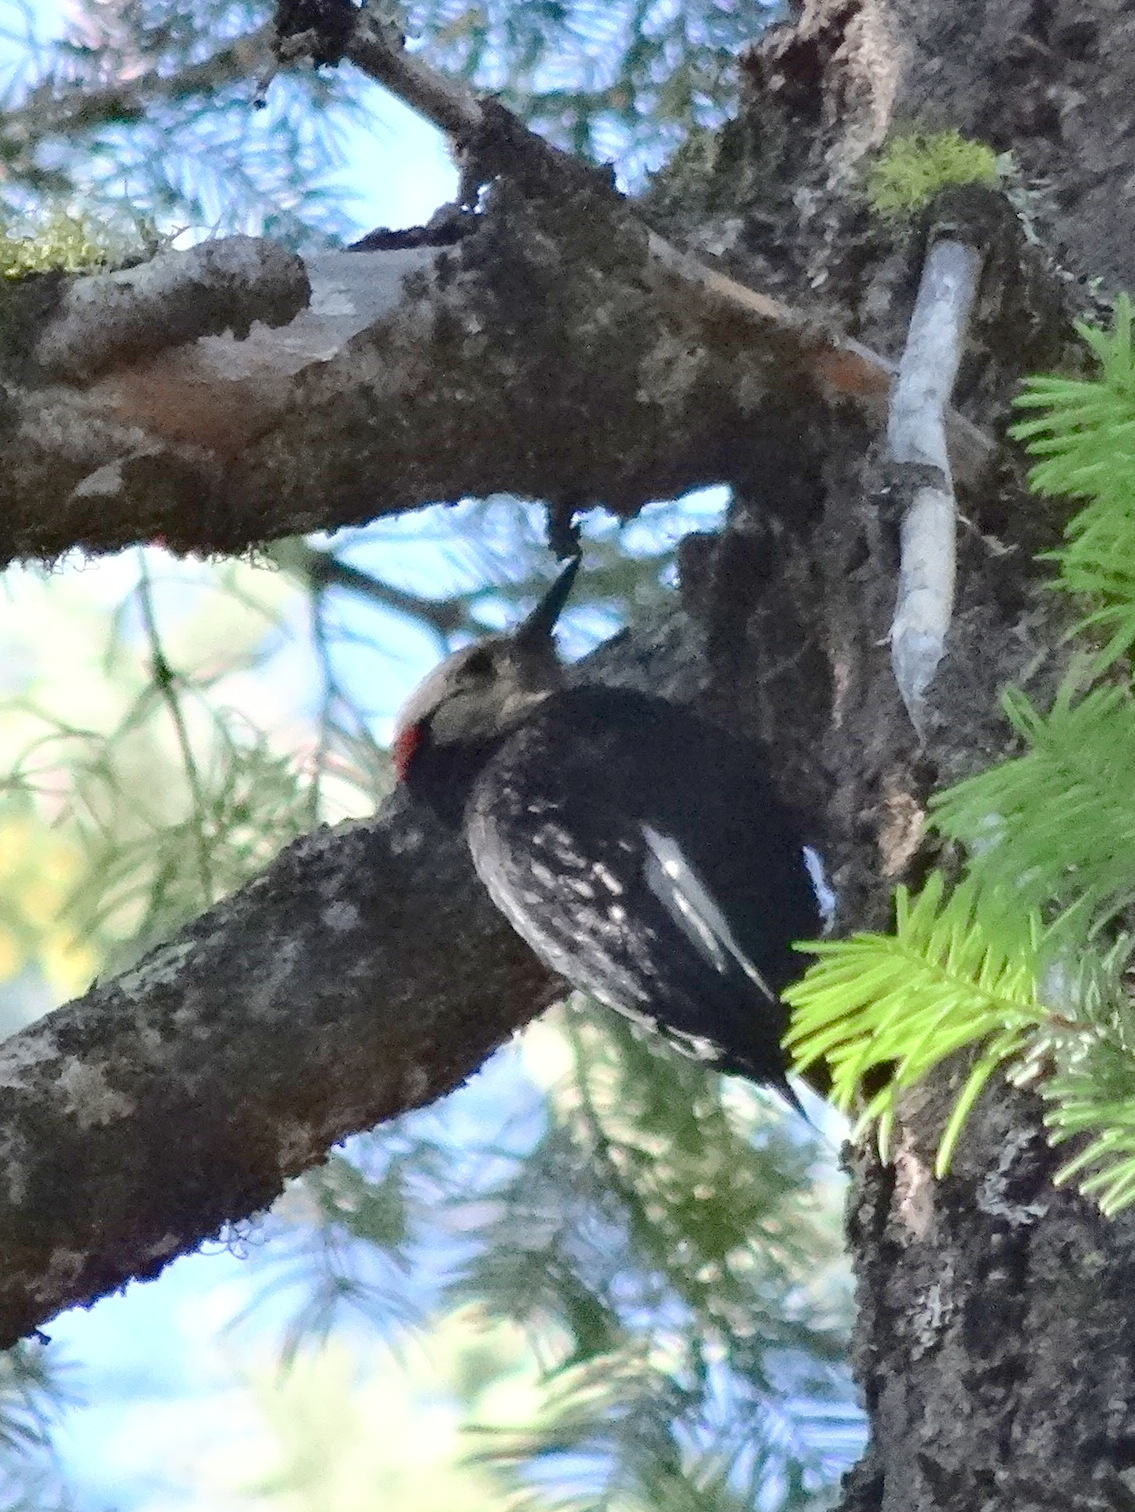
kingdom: Animalia
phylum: Chordata
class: Aves
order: Piciformes
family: Picidae
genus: Leuconotopicus
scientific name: Leuconotopicus albolarvatus
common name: White-headed woodpecker
